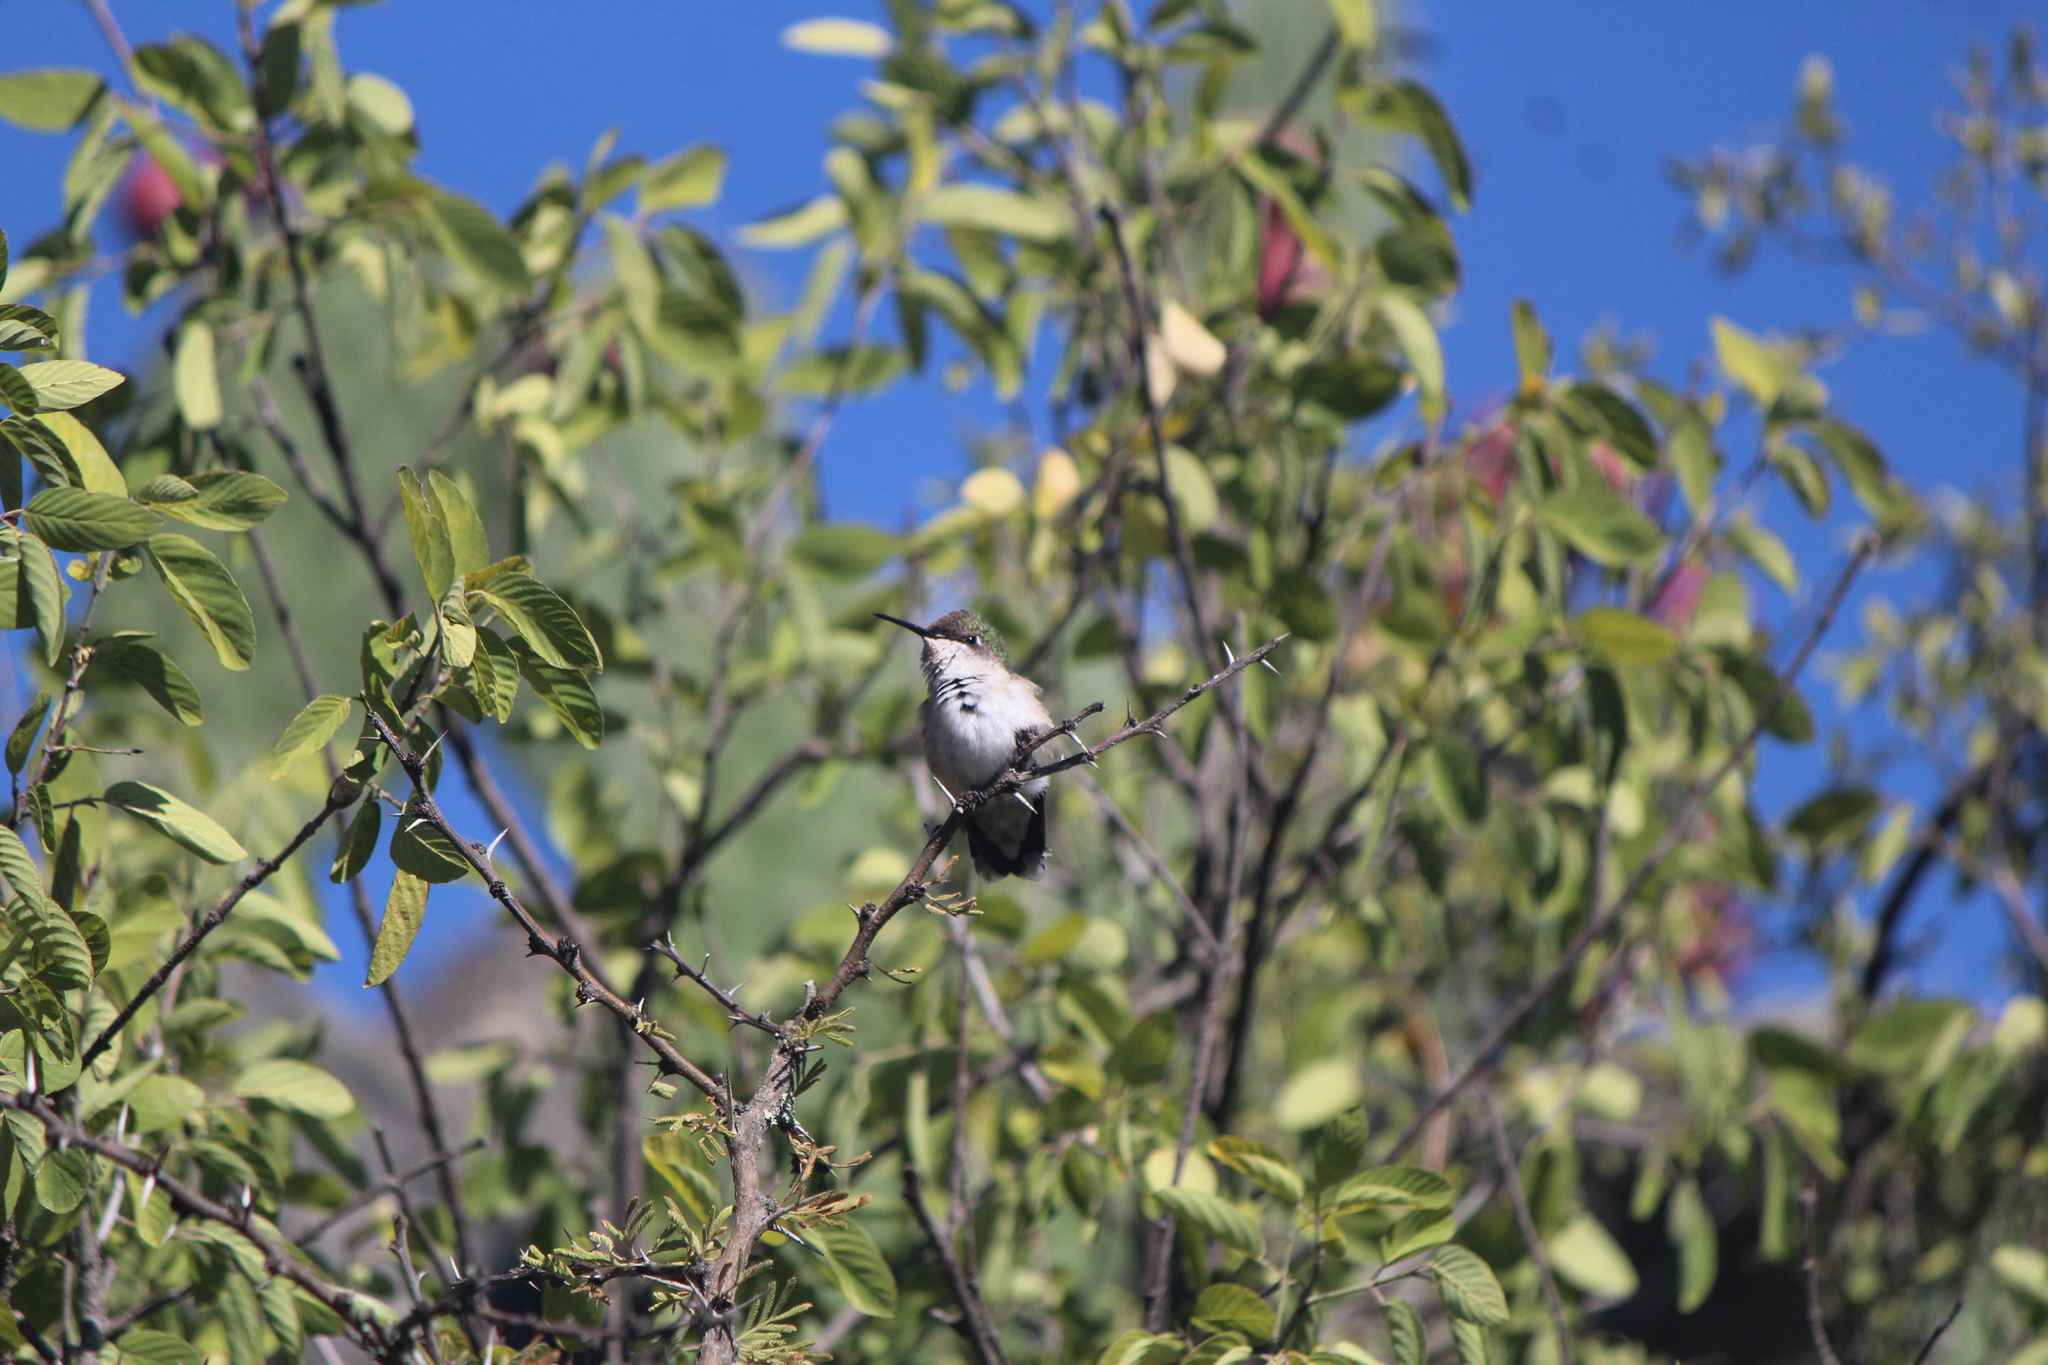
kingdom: Animalia
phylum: Chordata
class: Aves
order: Apodiformes
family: Trochilidae
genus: Archilochus
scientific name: Archilochus colubris
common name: Ruby-throated hummingbird
